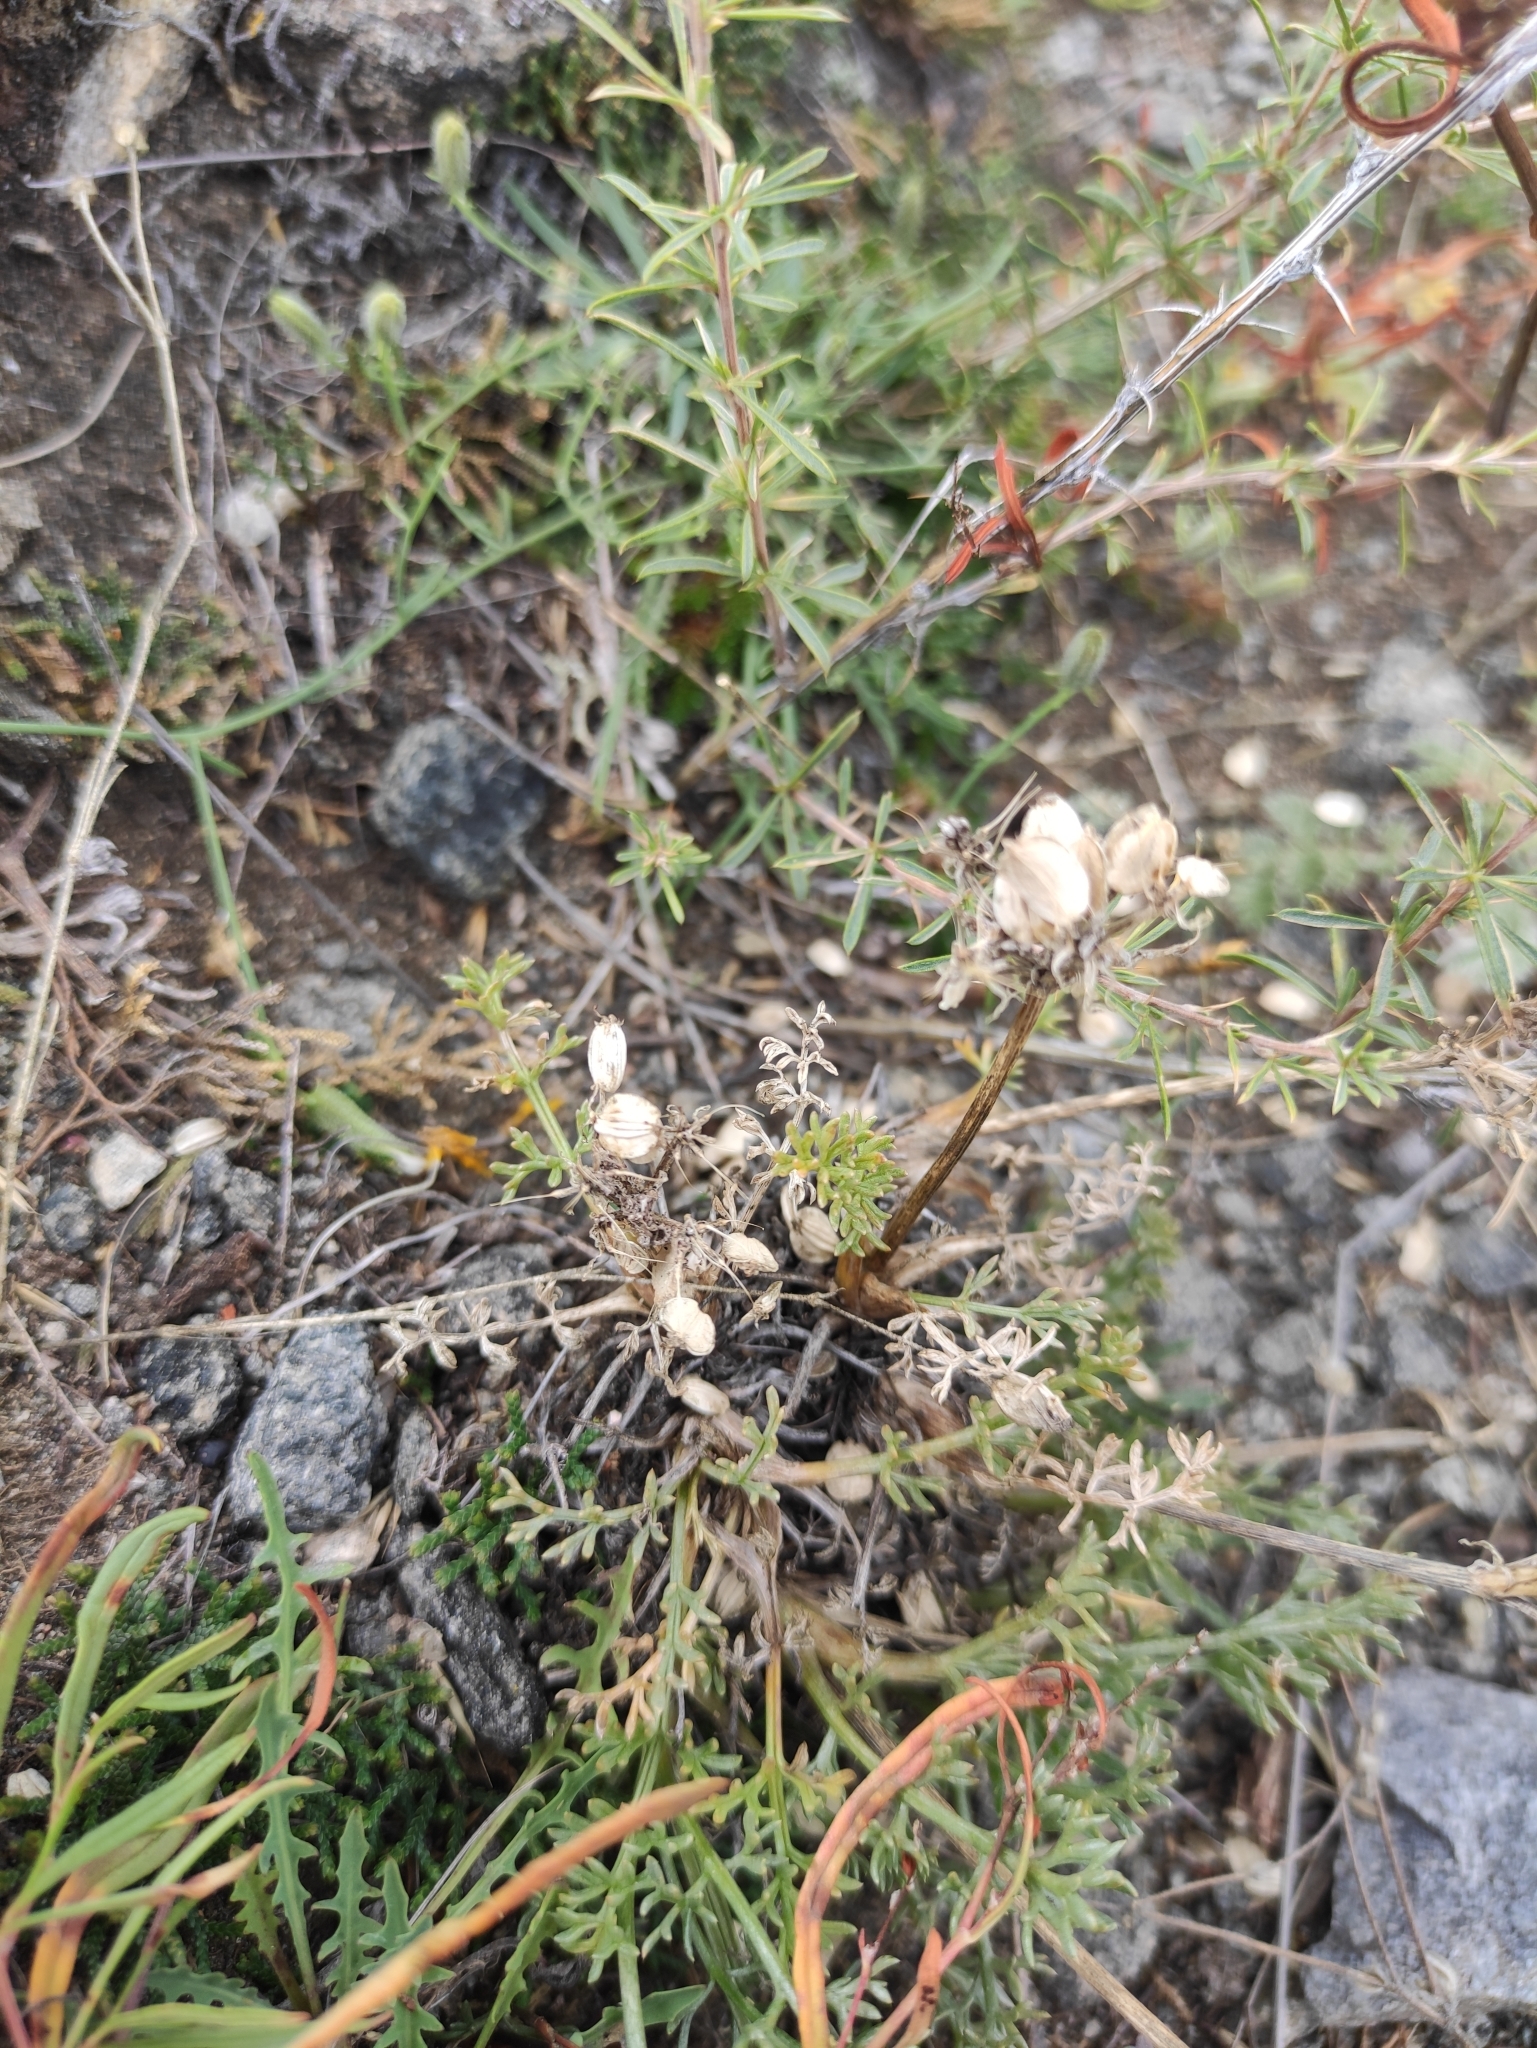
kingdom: Plantae
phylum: Tracheophyta
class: Magnoliopsida
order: Apiales
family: Apiaceae
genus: Ferulopsis
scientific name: Ferulopsis hystrix
